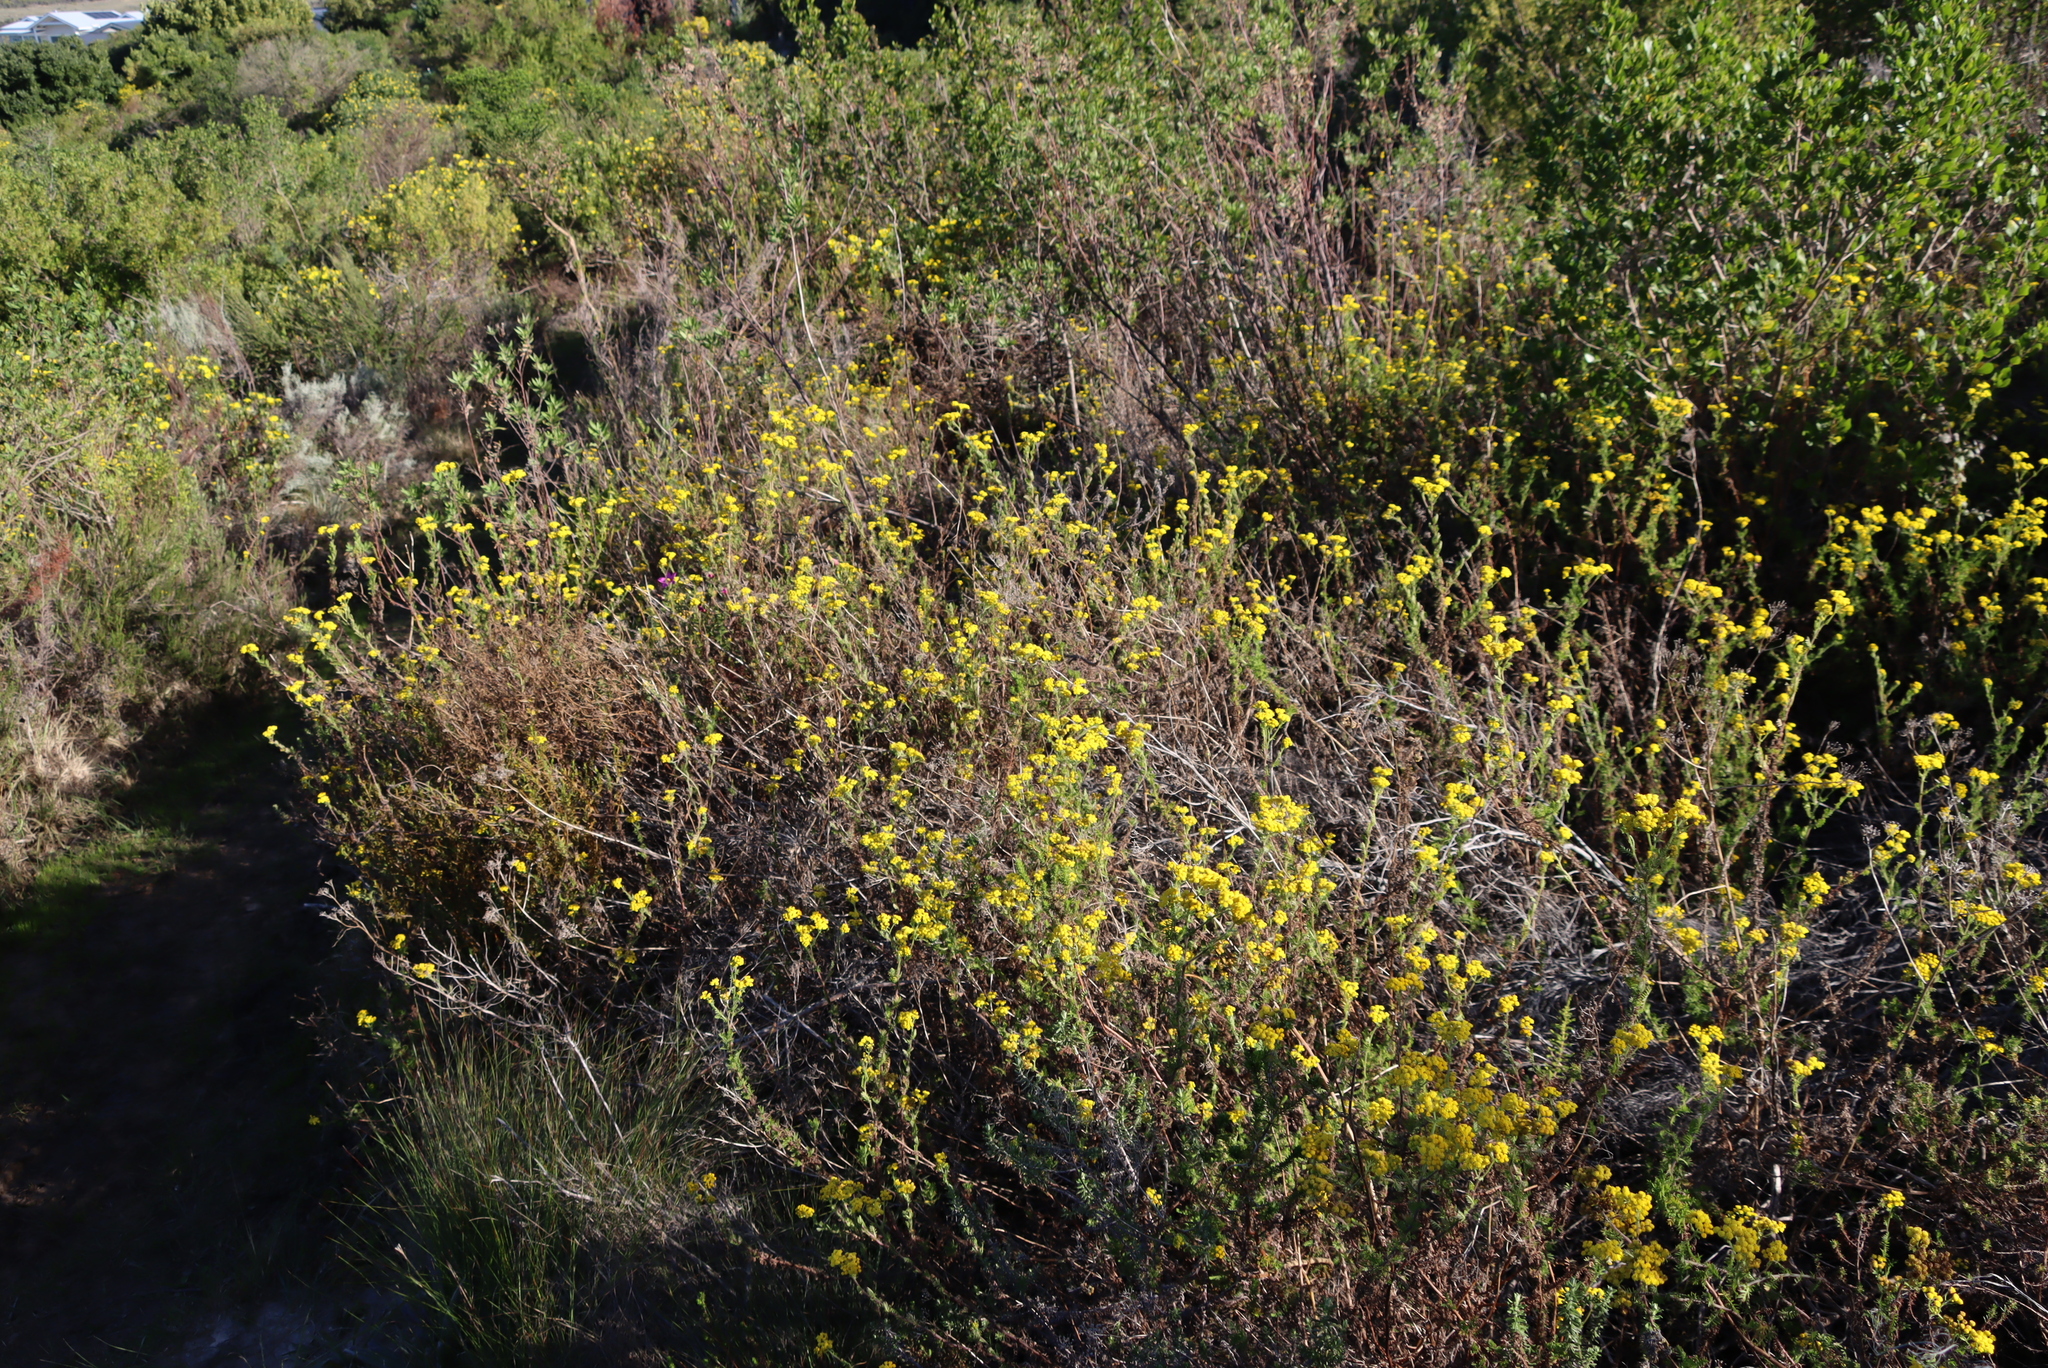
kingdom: Plantae
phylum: Tracheophyta
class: Magnoliopsida
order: Asterales
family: Asteraceae
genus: Hippia
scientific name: Hippia frutescens
